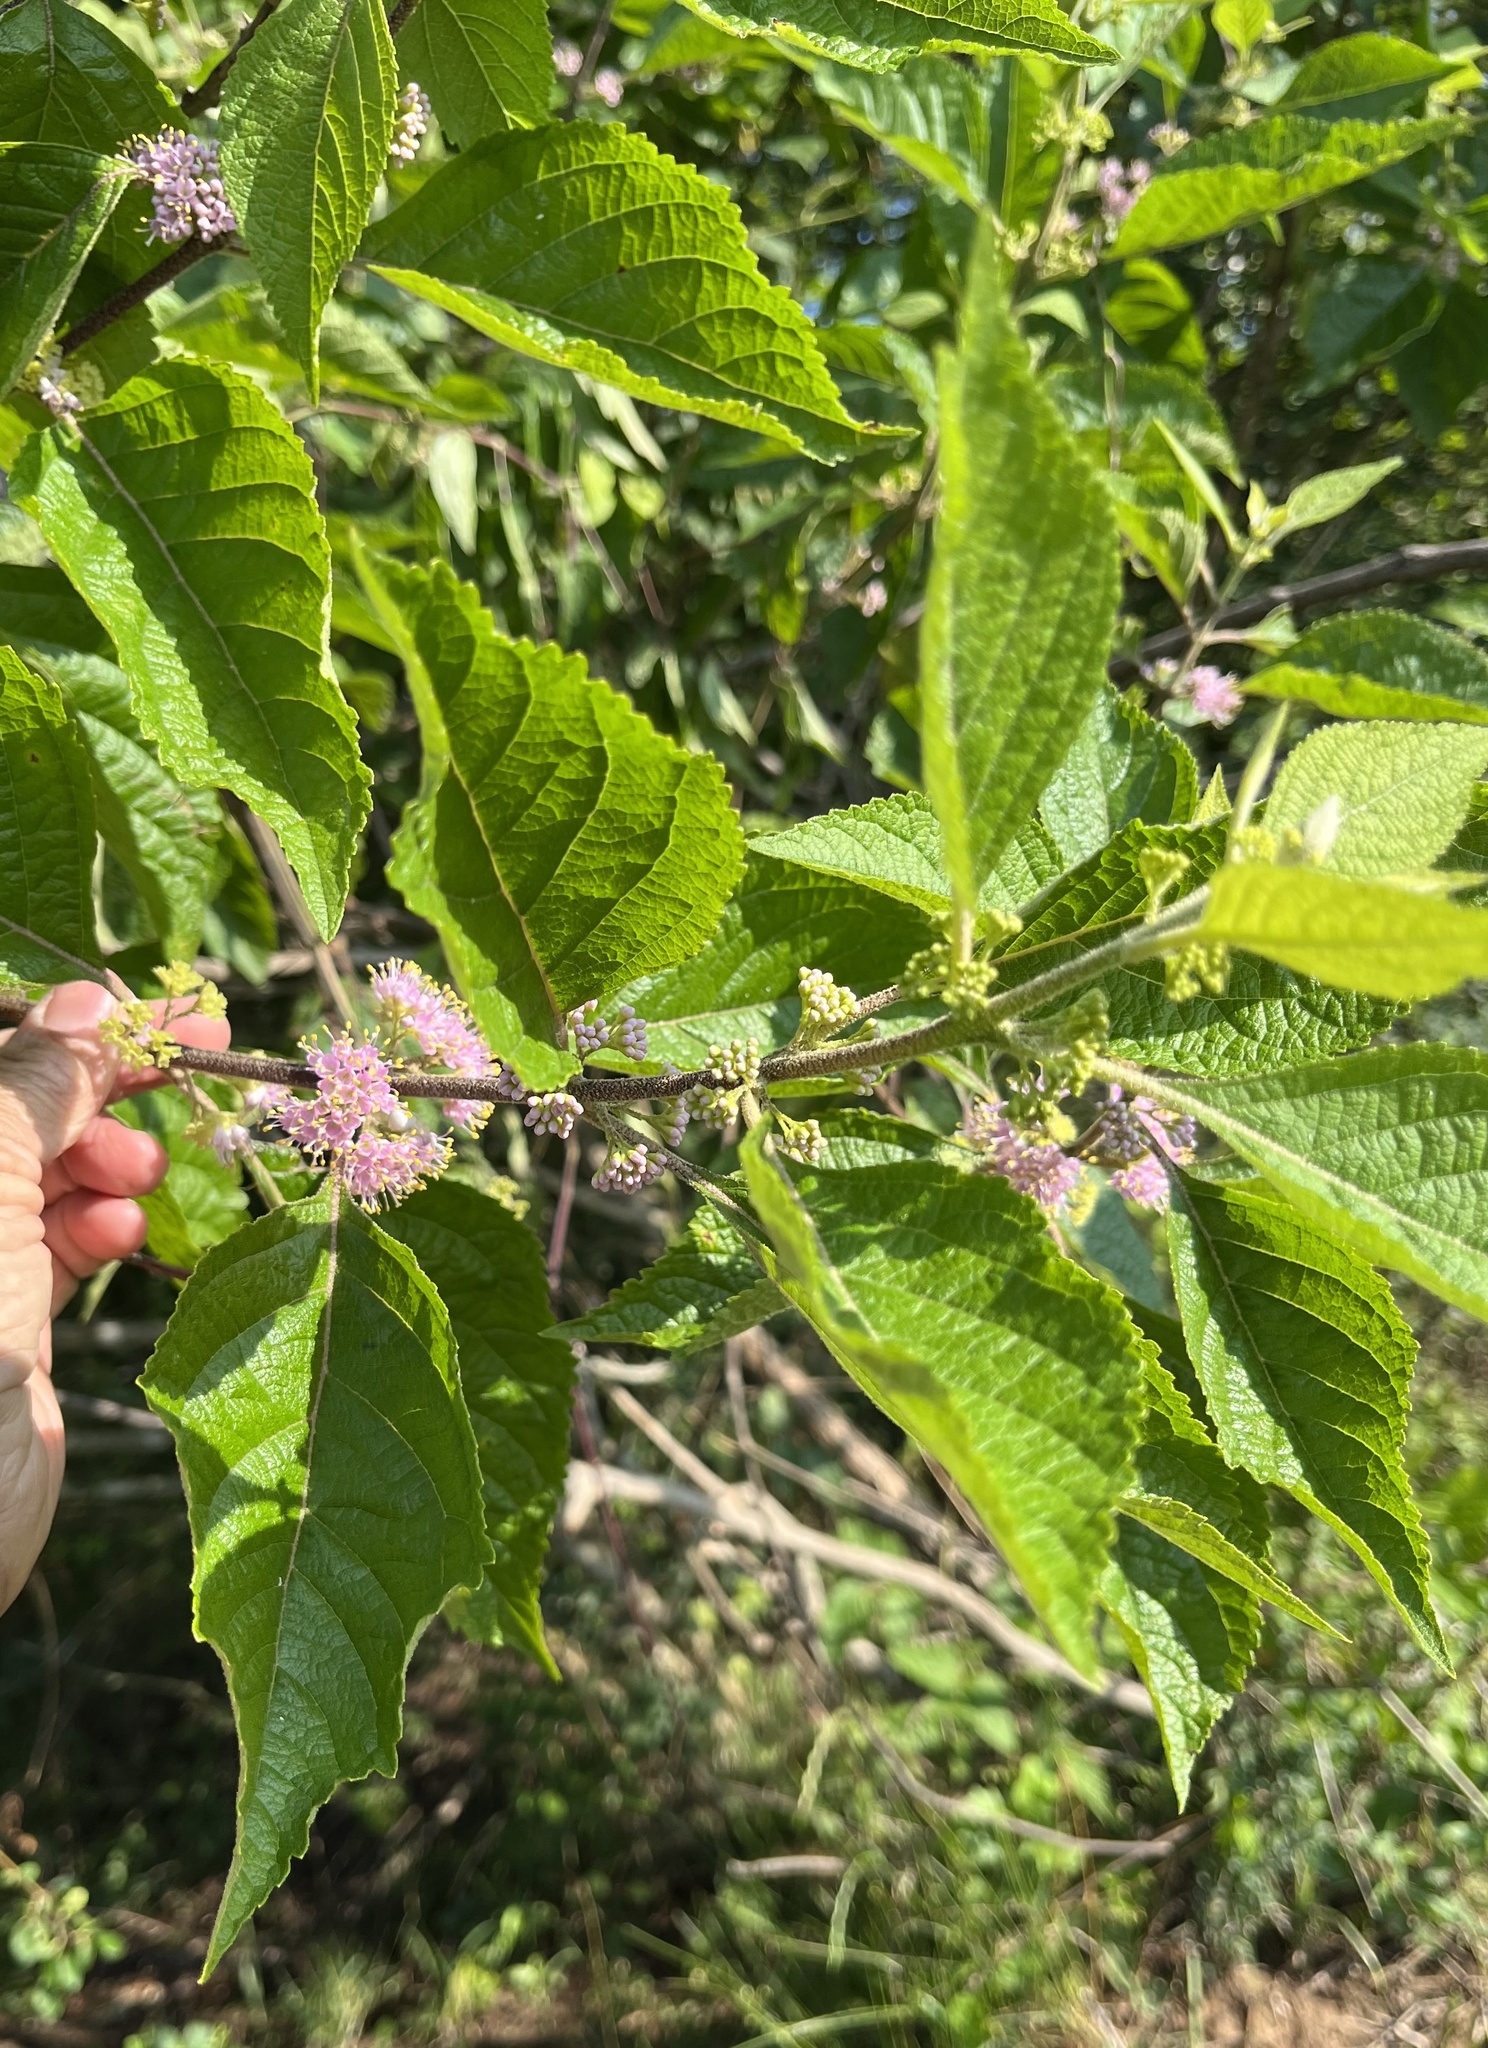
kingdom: Plantae
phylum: Tracheophyta
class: Magnoliopsida
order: Lamiales
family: Lamiaceae
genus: Callicarpa
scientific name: Callicarpa americana
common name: American beautyberry
